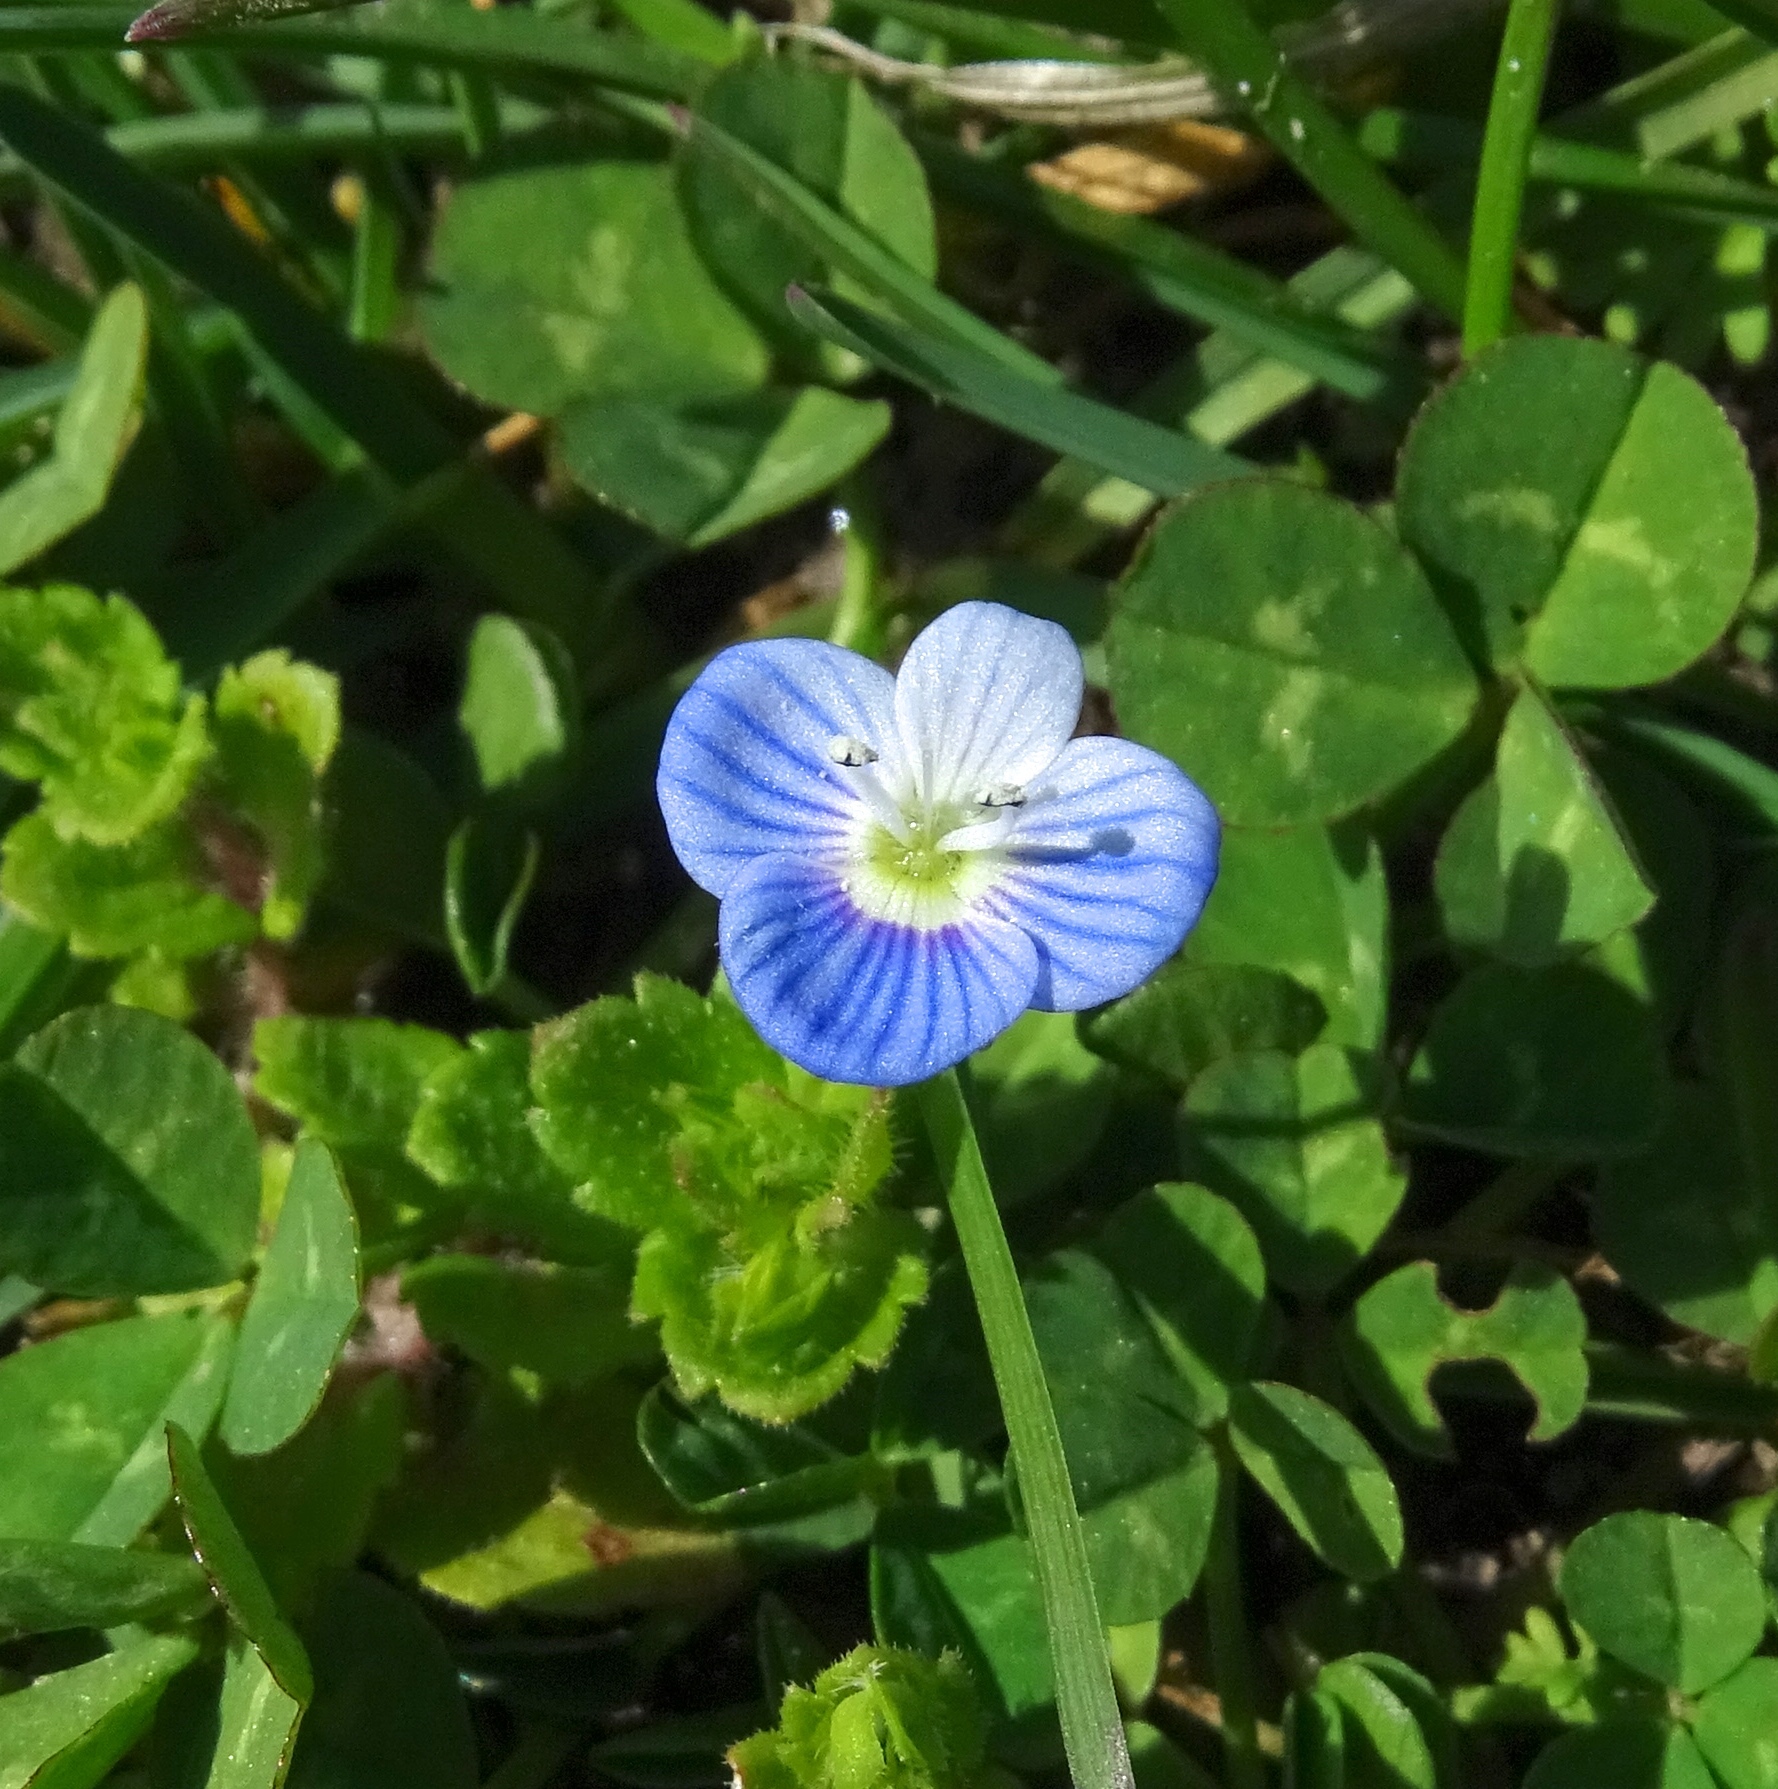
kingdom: Plantae
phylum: Tracheophyta
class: Magnoliopsida
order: Lamiales
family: Plantaginaceae
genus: Veronica
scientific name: Veronica persica
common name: Common field-speedwell
